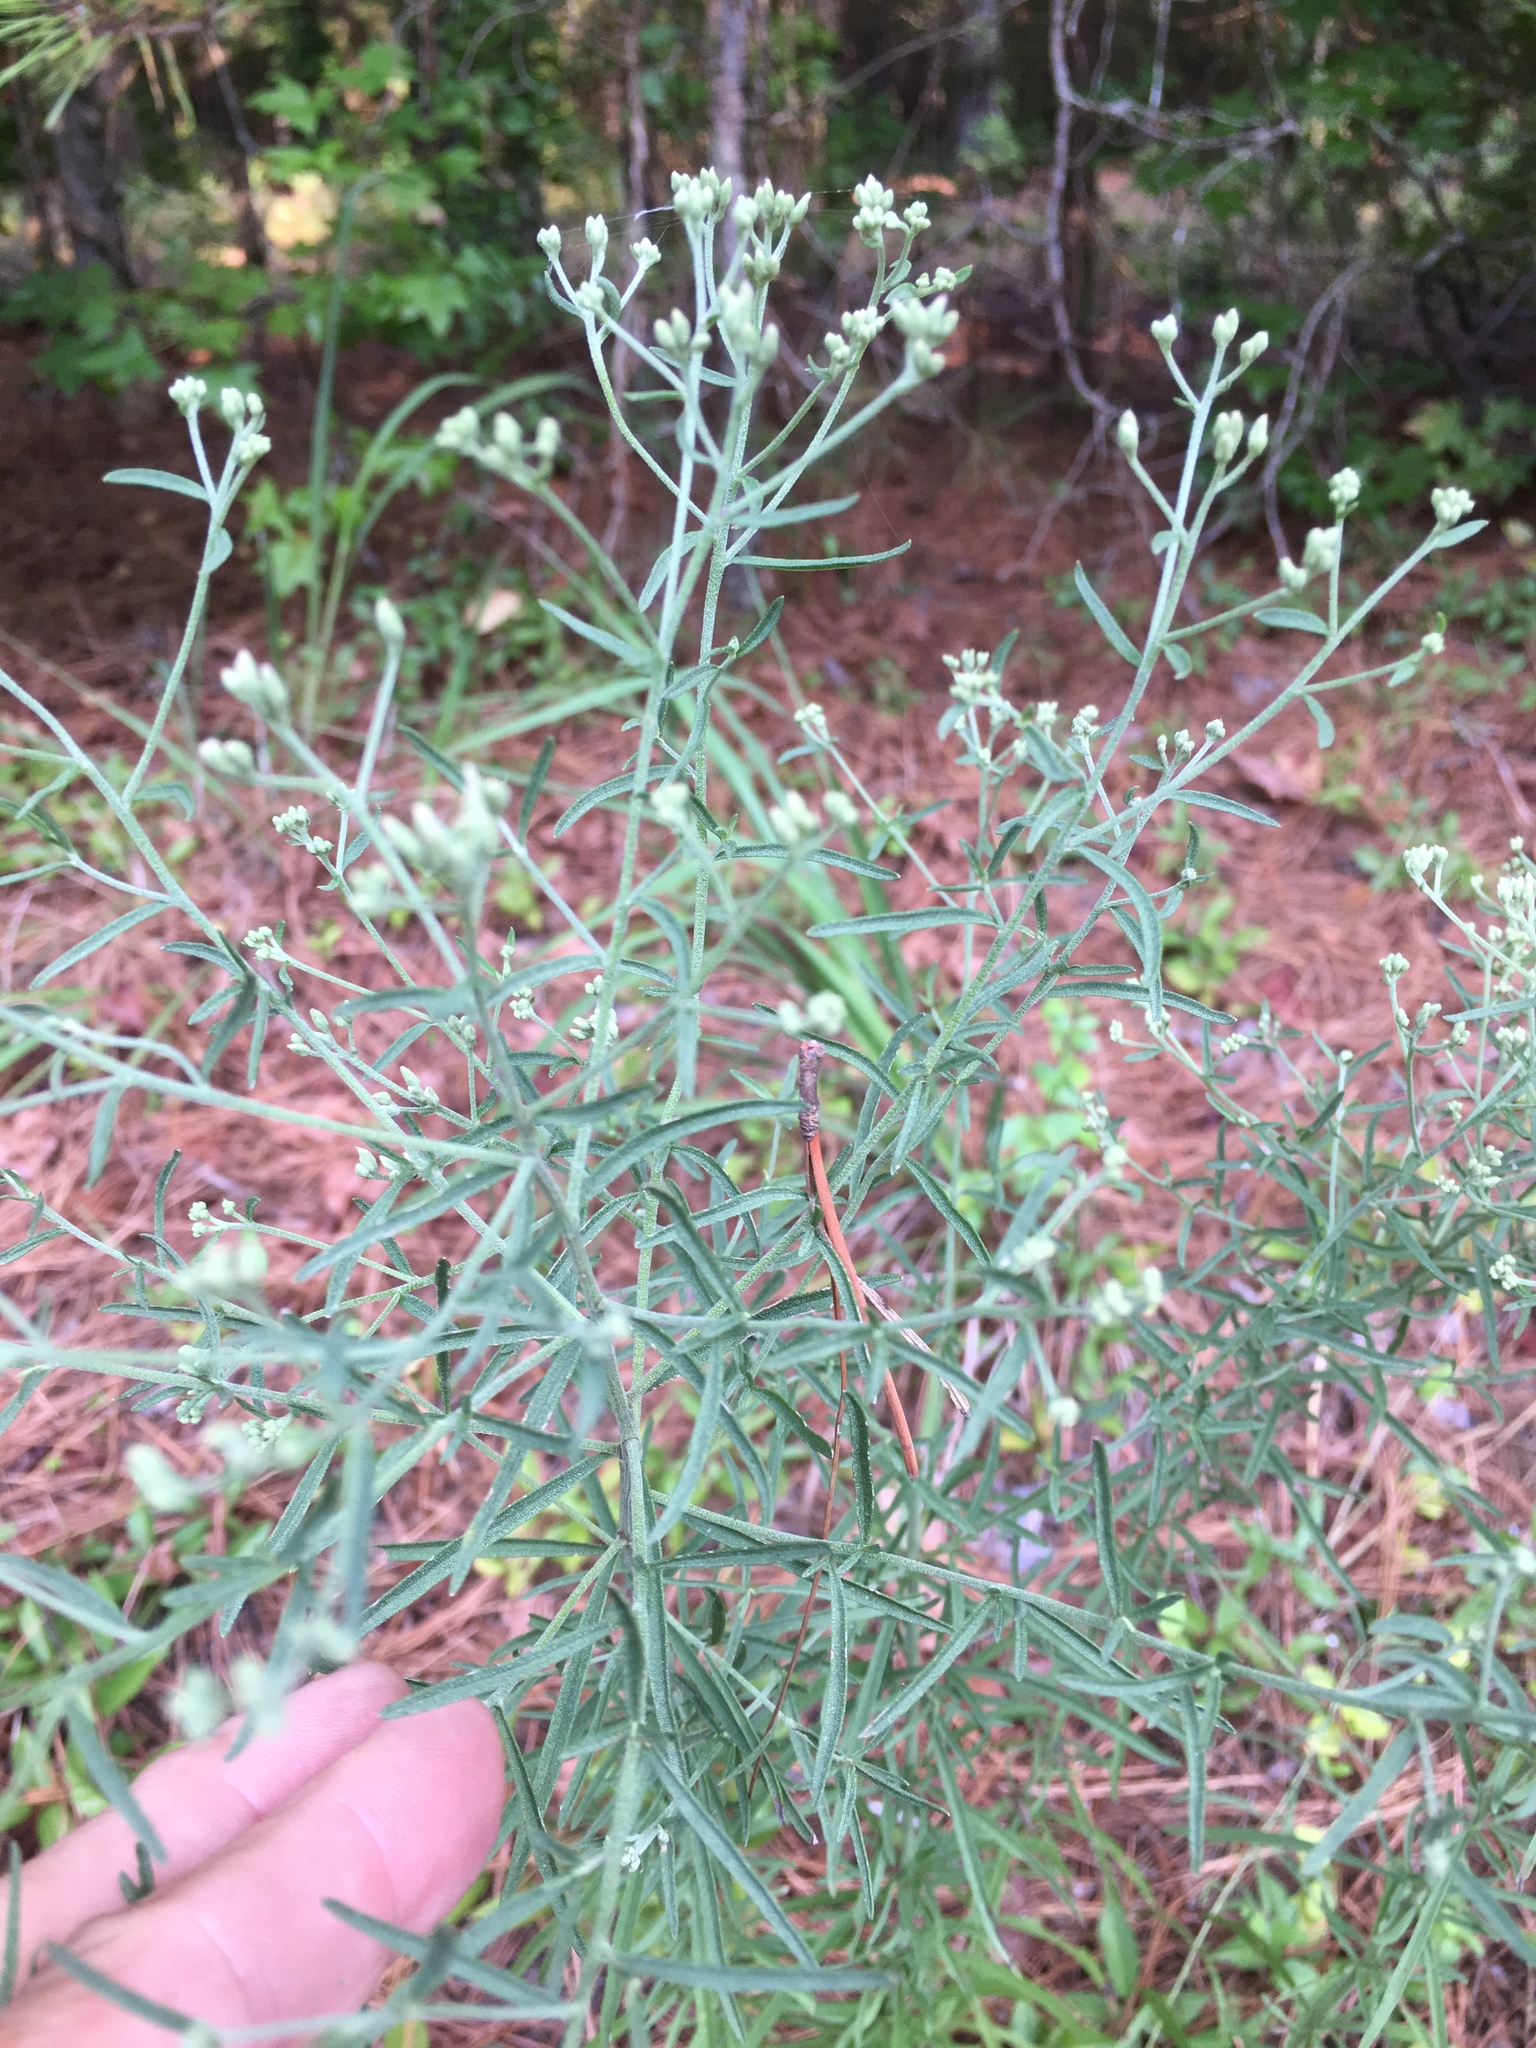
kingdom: Plantae
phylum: Tracheophyta
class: Magnoliopsida
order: Asterales
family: Asteraceae
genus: Eupatorium
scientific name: Eupatorium hyssopifolium
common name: Hyssop-leaf thoroughwort
